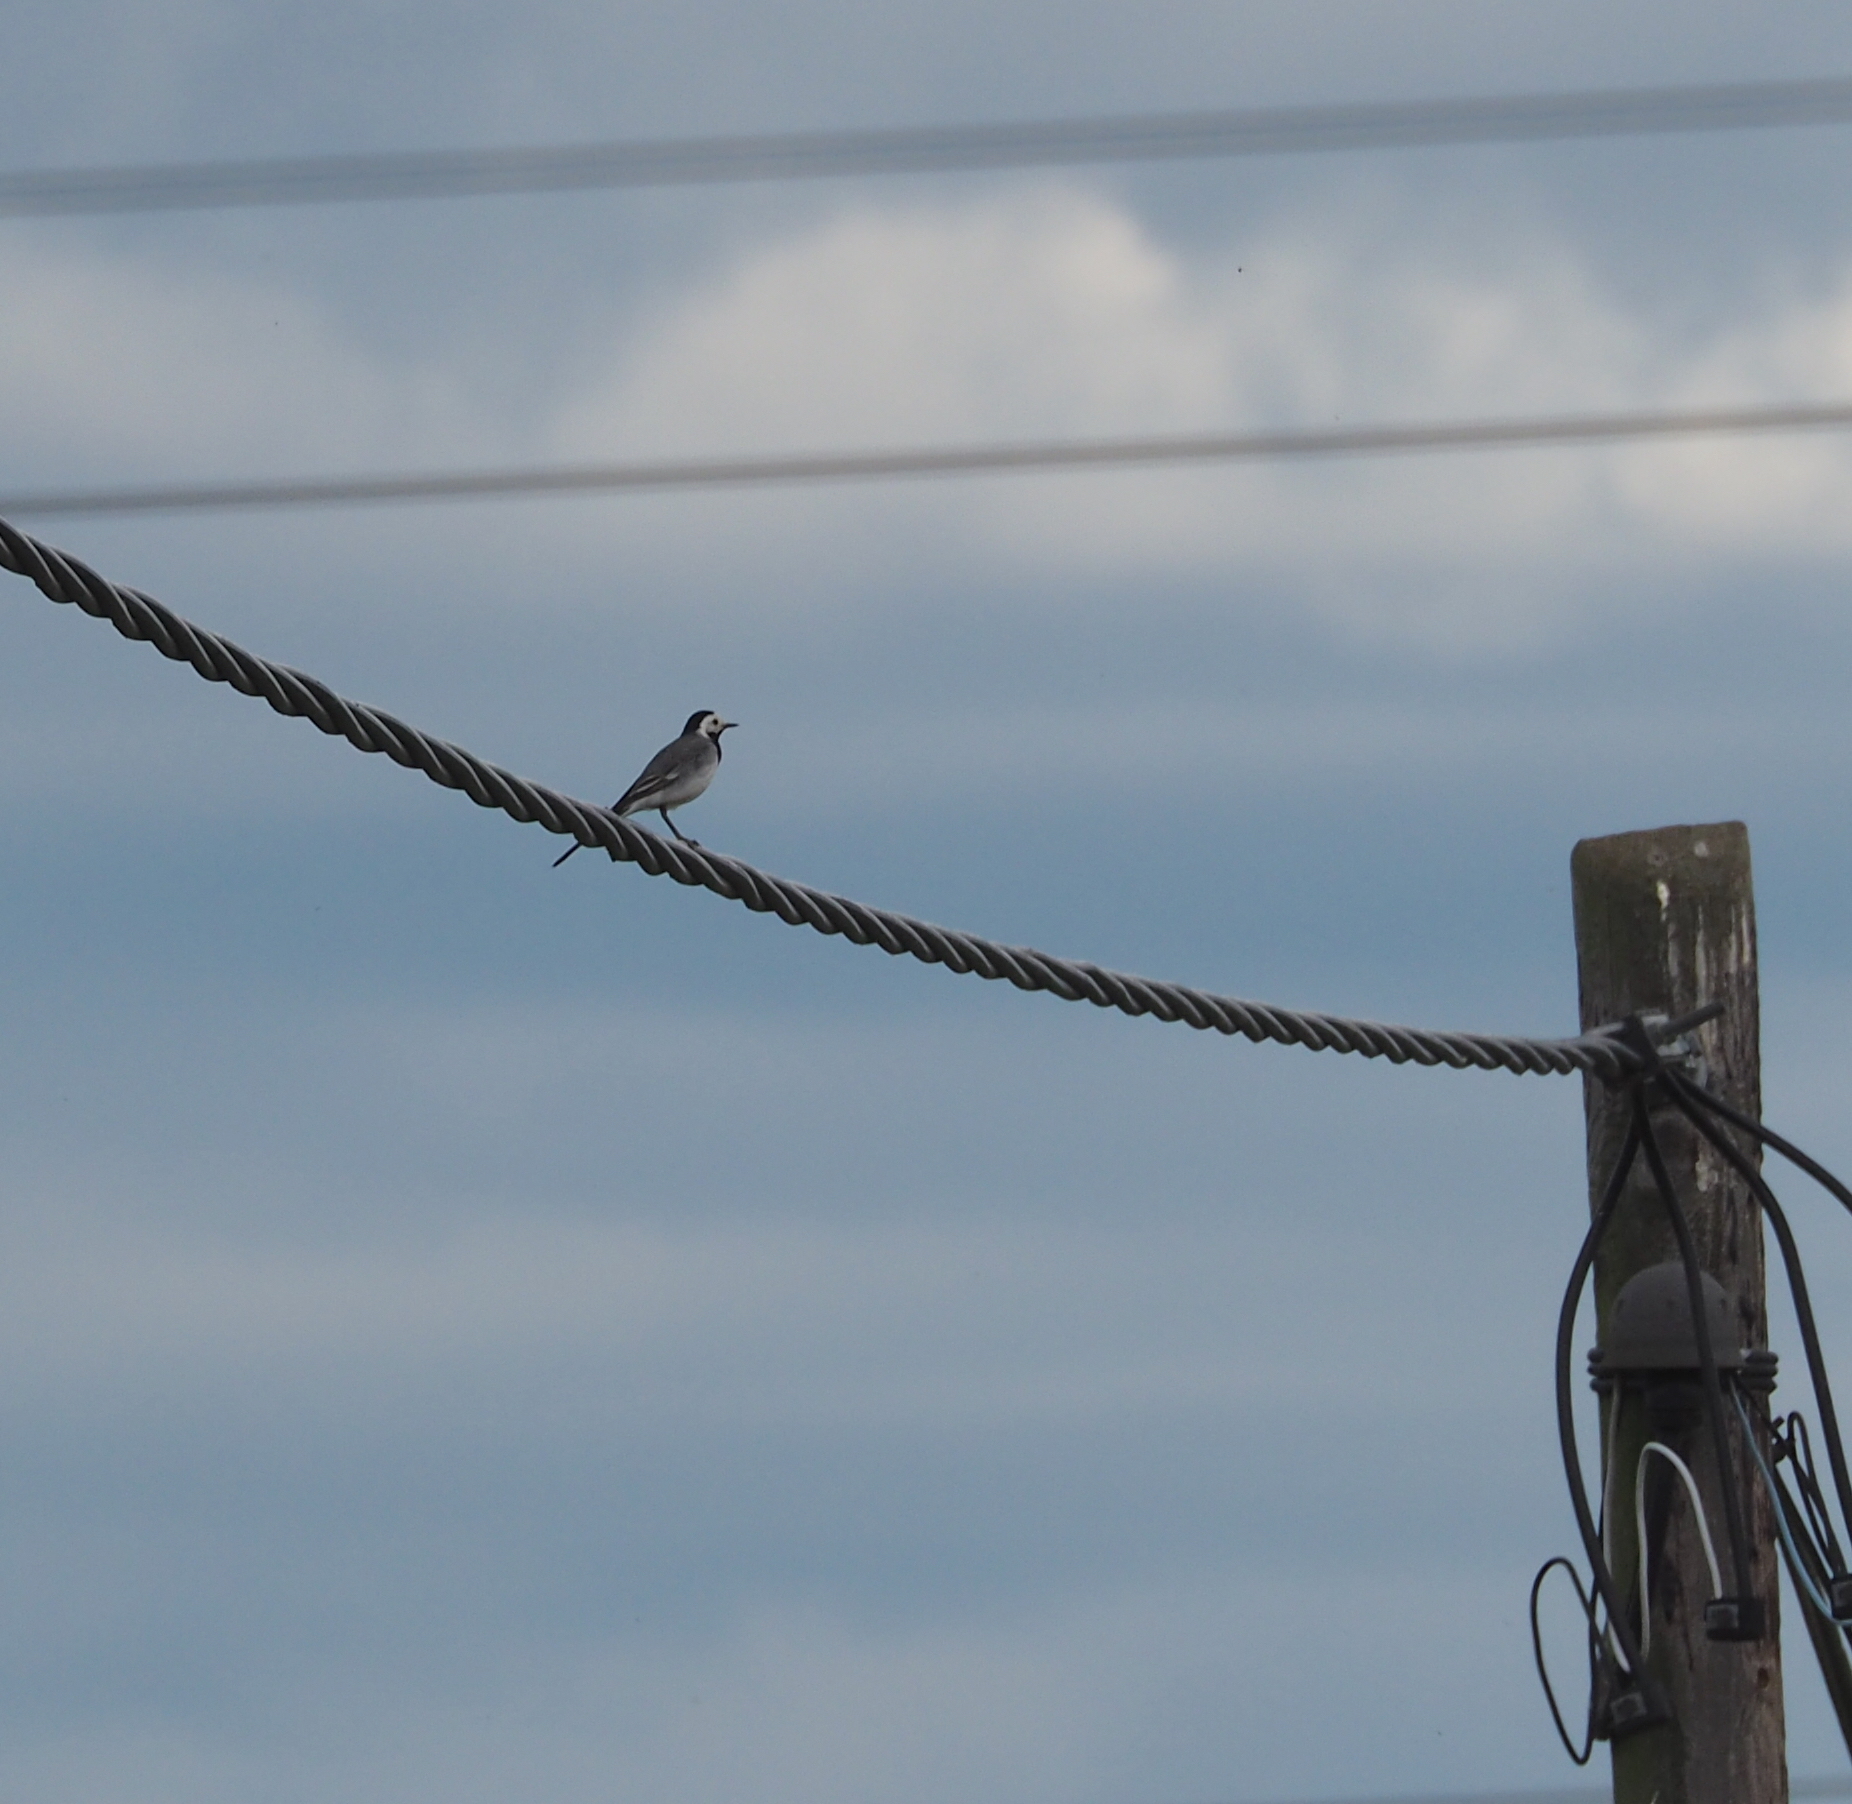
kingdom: Animalia
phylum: Chordata
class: Aves
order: Passeriformes
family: Motacillidae
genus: Motacilla
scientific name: Motacilla alba
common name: White wagtail
